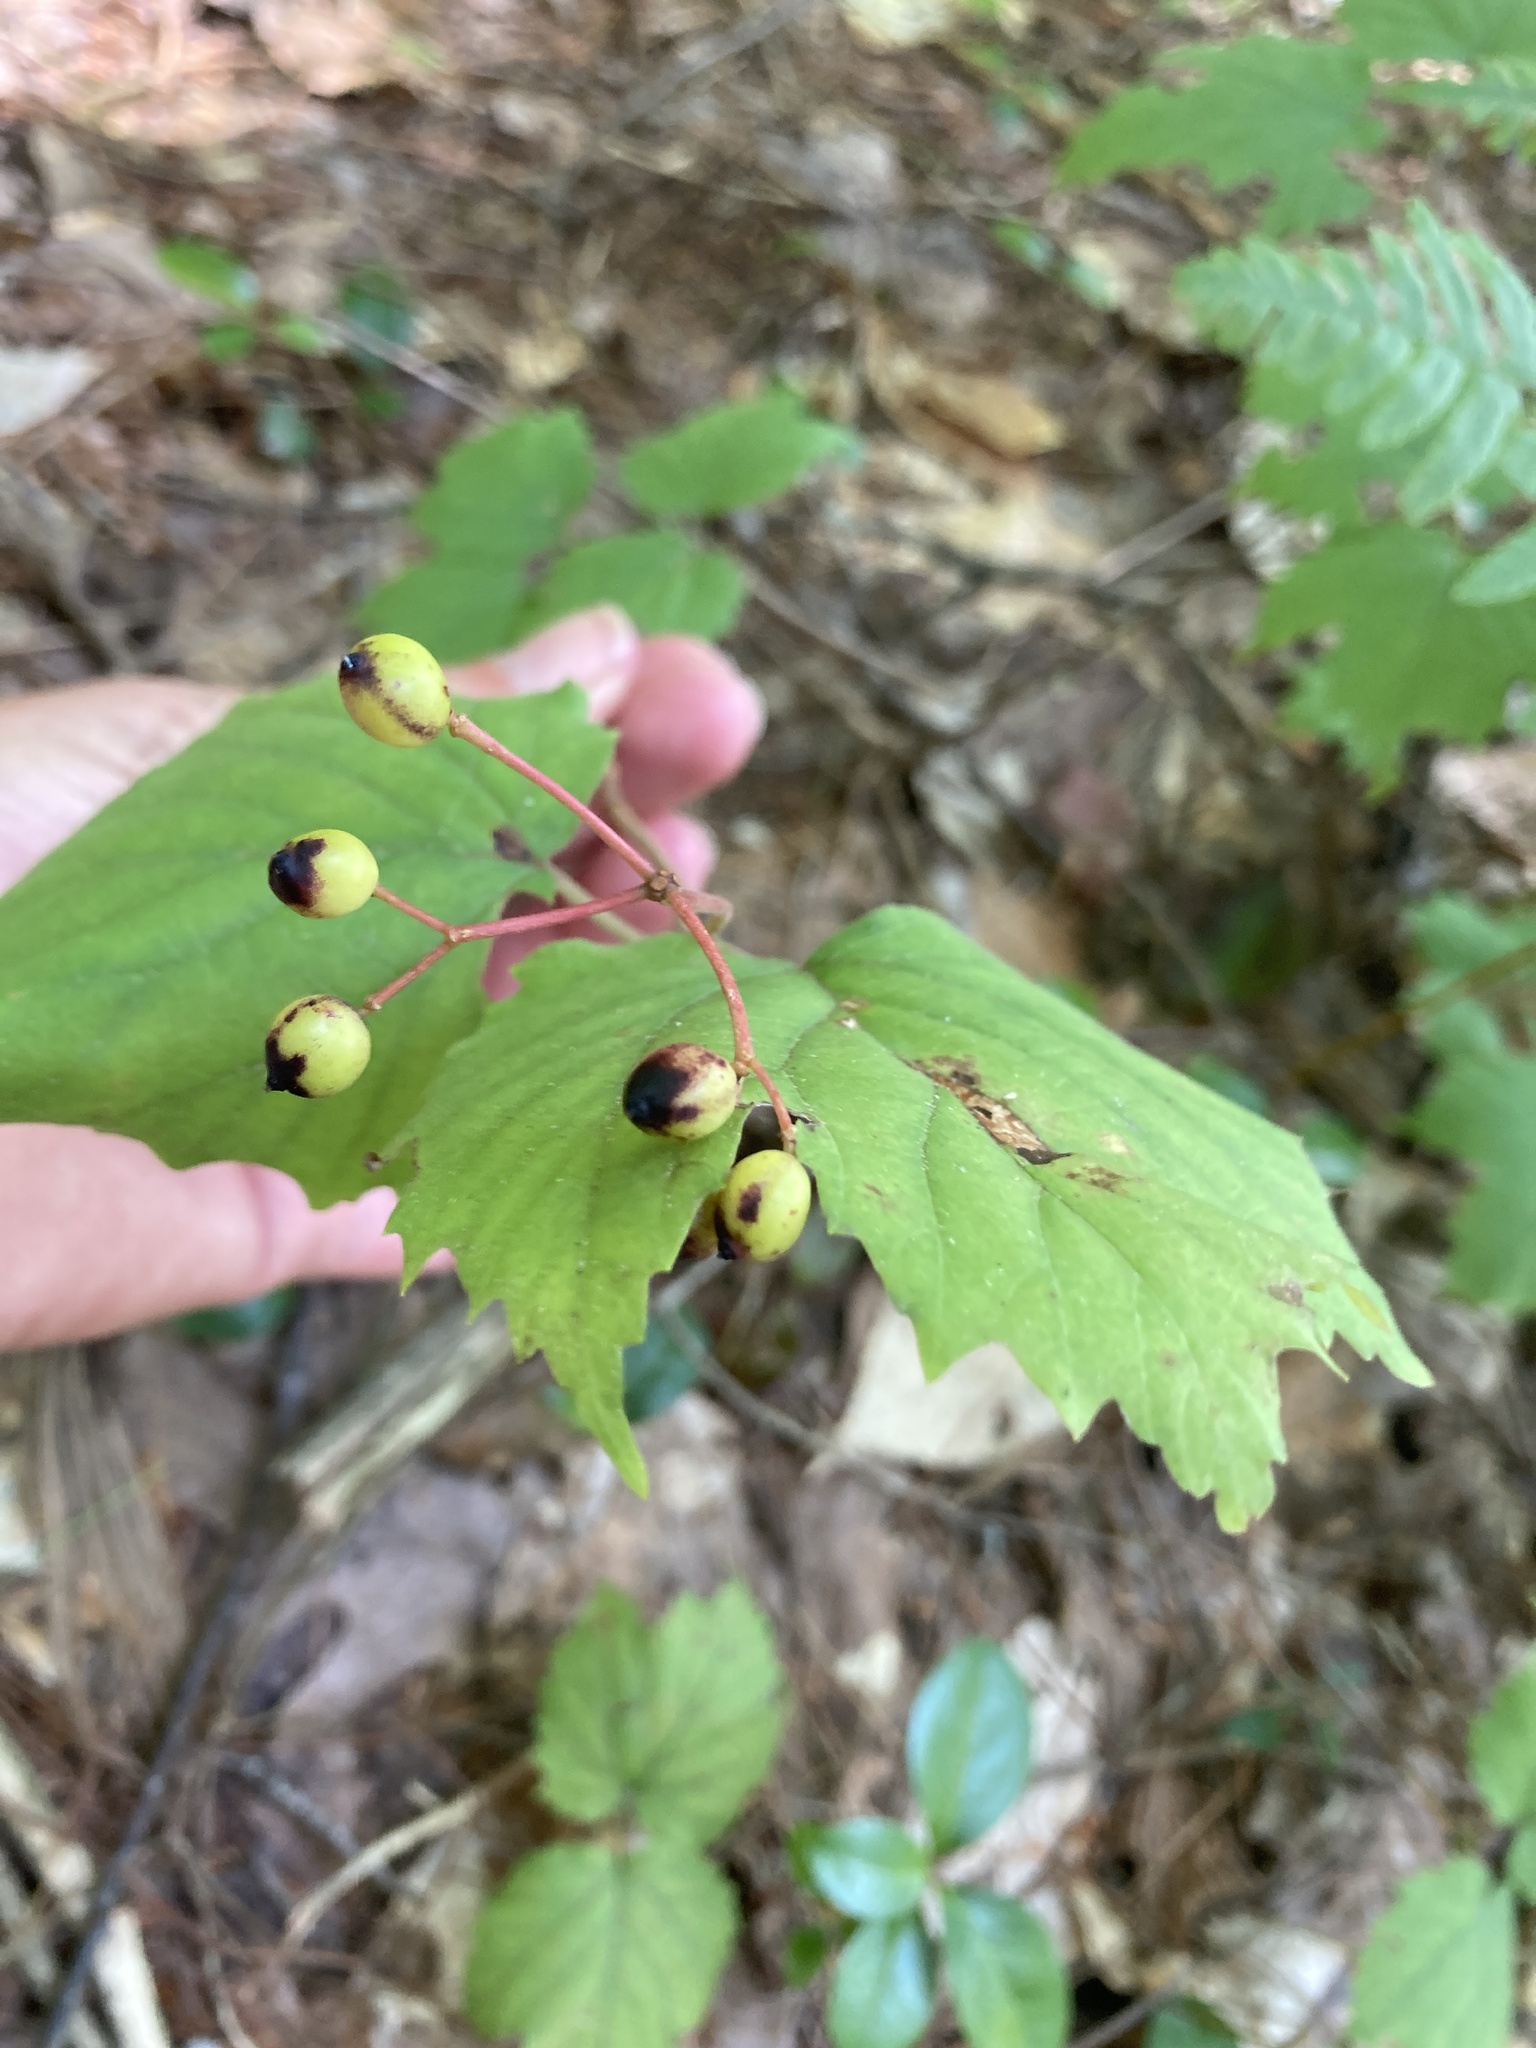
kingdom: Plantae
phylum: Tracheophyta
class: Magnoliopsida
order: Dipsacales
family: Viburnaceae
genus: Viburnum
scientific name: Viburnum acerifolium
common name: Dockmackie
